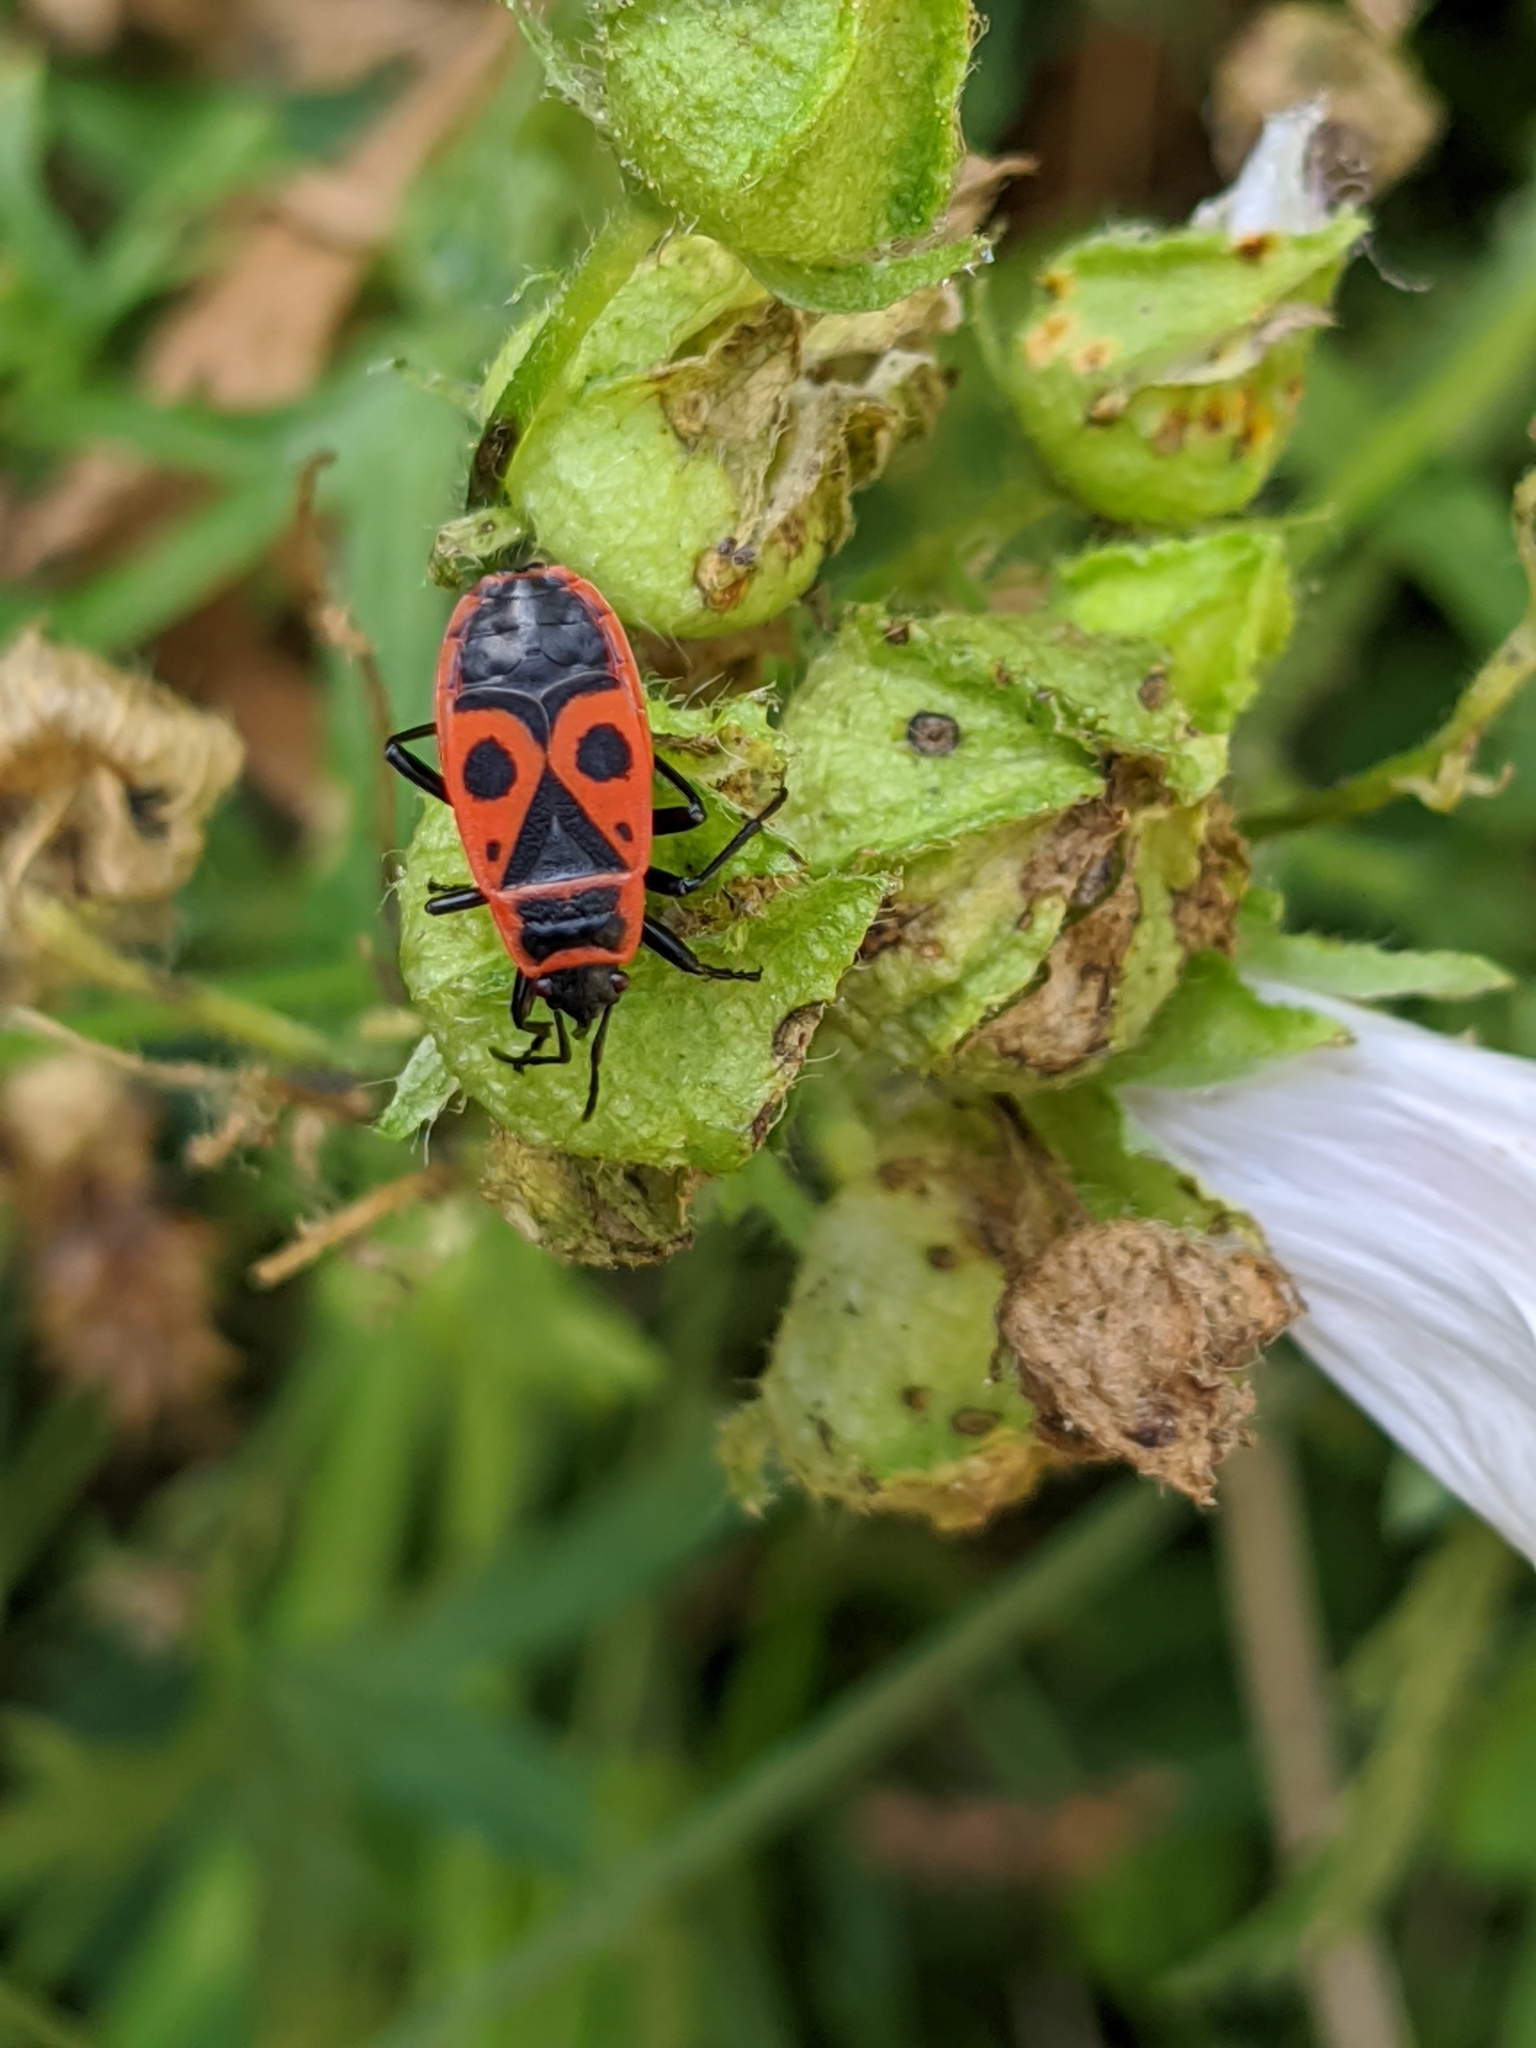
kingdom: Animalia
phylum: Arthropoda
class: Insecta
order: Hemiptera
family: Pyrrhocoridae
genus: Pyrrhocoris
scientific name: Pyrrhocoris apterus
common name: Firebug
